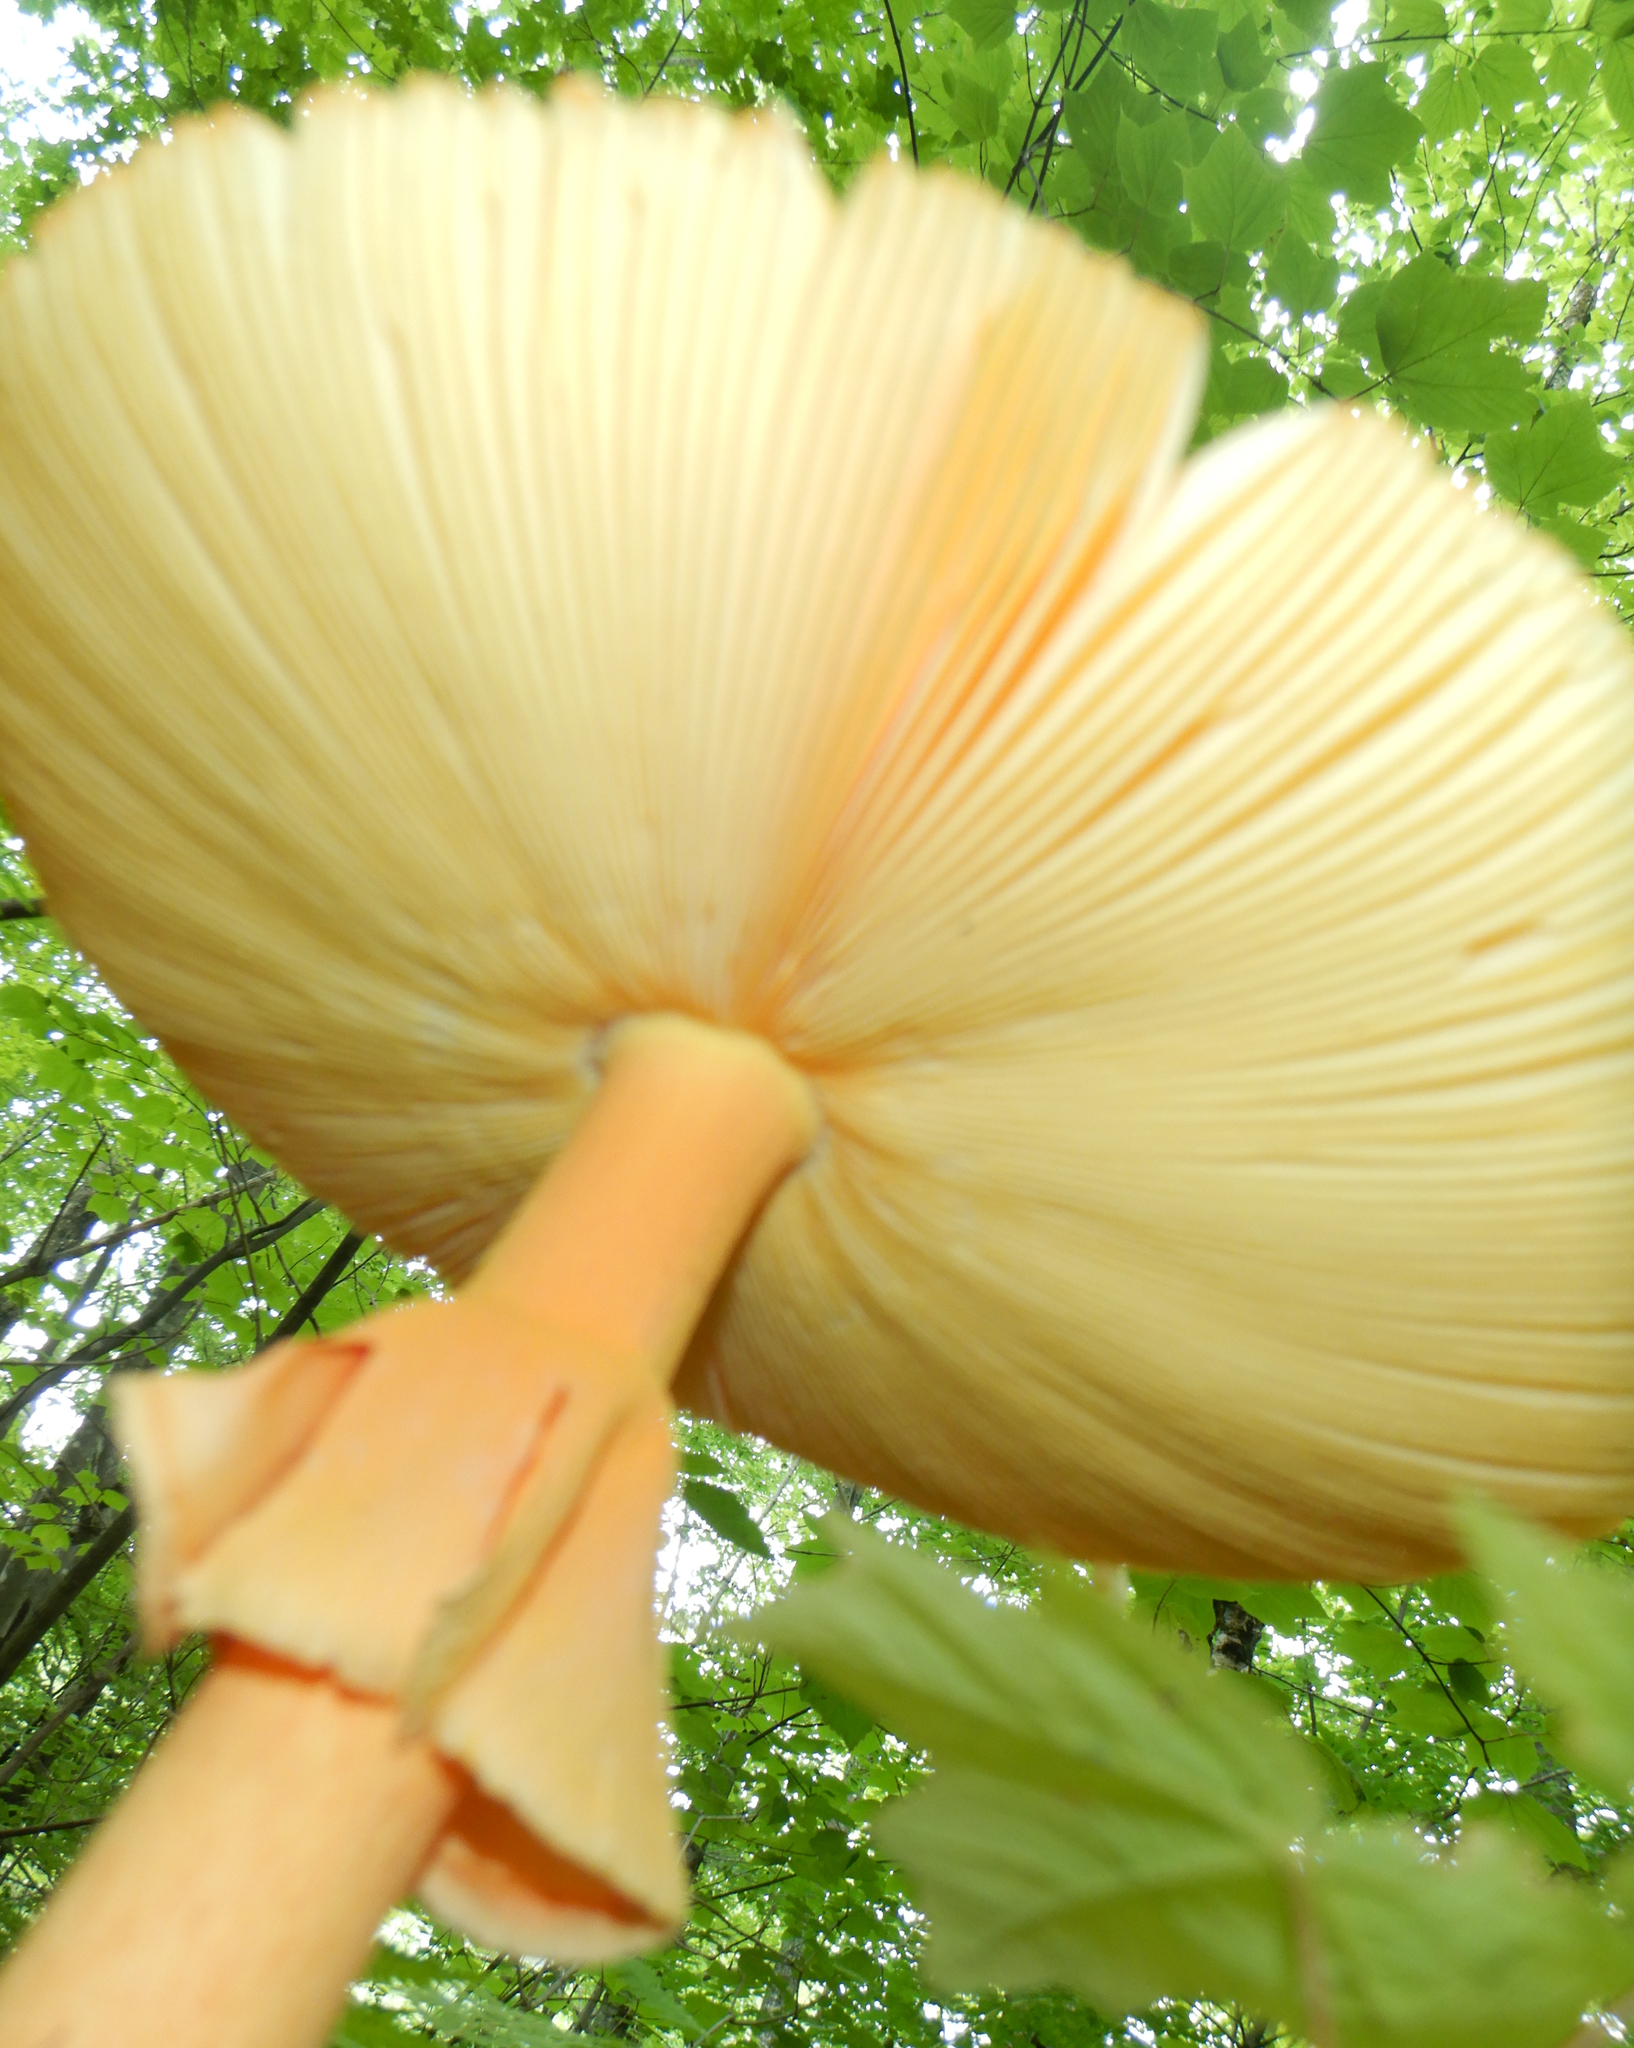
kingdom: Fungi
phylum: Basidiomycota
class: Agaricomycetes
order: Agaricales
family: Amanitaceae
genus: Amanita
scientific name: Amanita jacksonii
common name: Jackson's slender caesar
